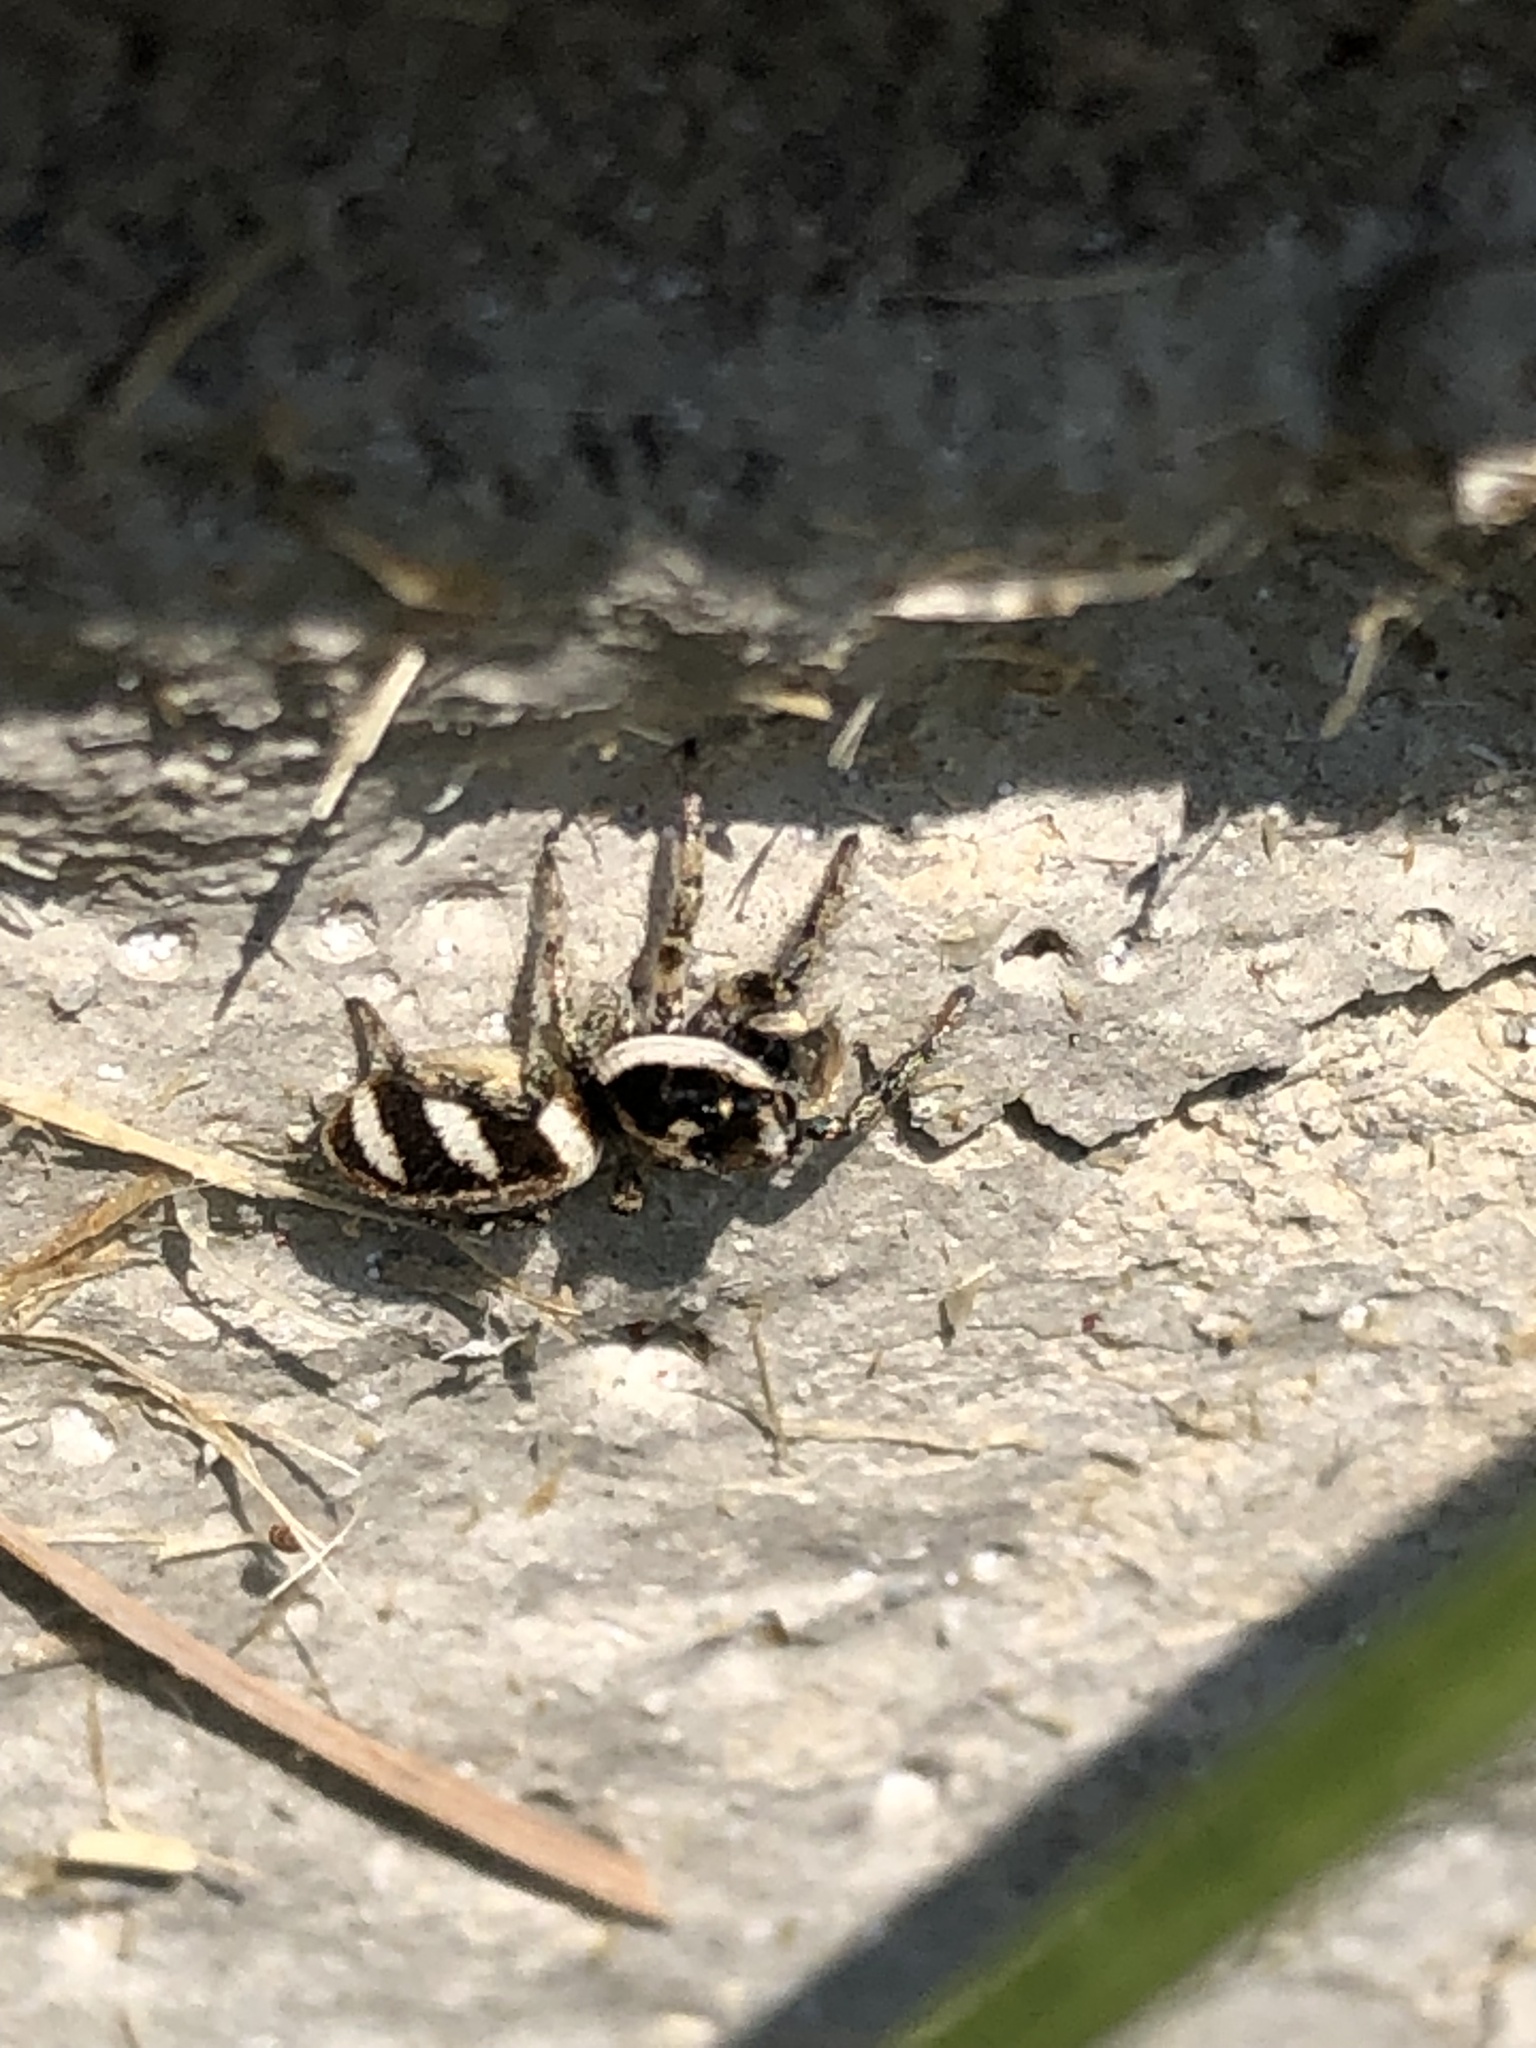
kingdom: Animalia
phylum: Arthropoda
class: Arachnida
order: Araneae
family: Salticidae
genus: Salticus
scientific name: Salticus scenicus
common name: Zebra jumper
